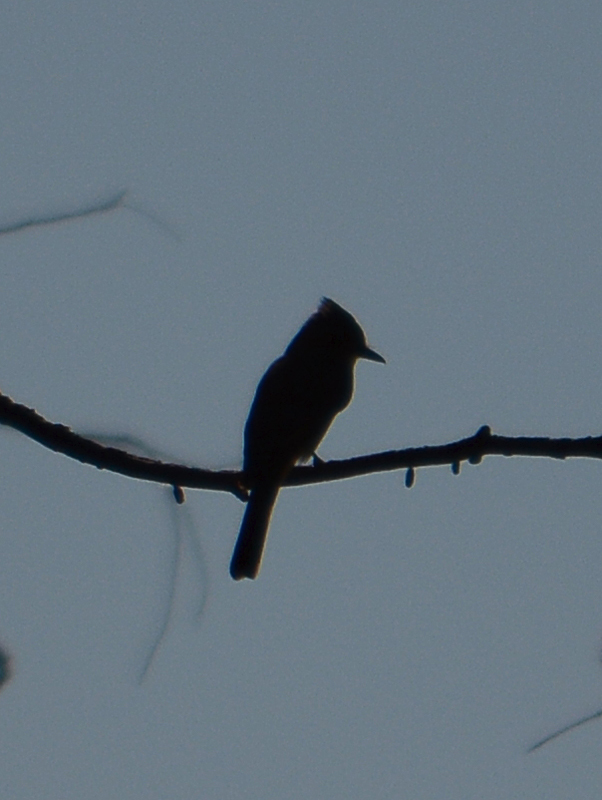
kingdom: Animalia
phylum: Chordata
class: Aves
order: Passeriformes
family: Tyrannidae
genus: Contopus
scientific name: Contopus pertinax
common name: Greater pewee
